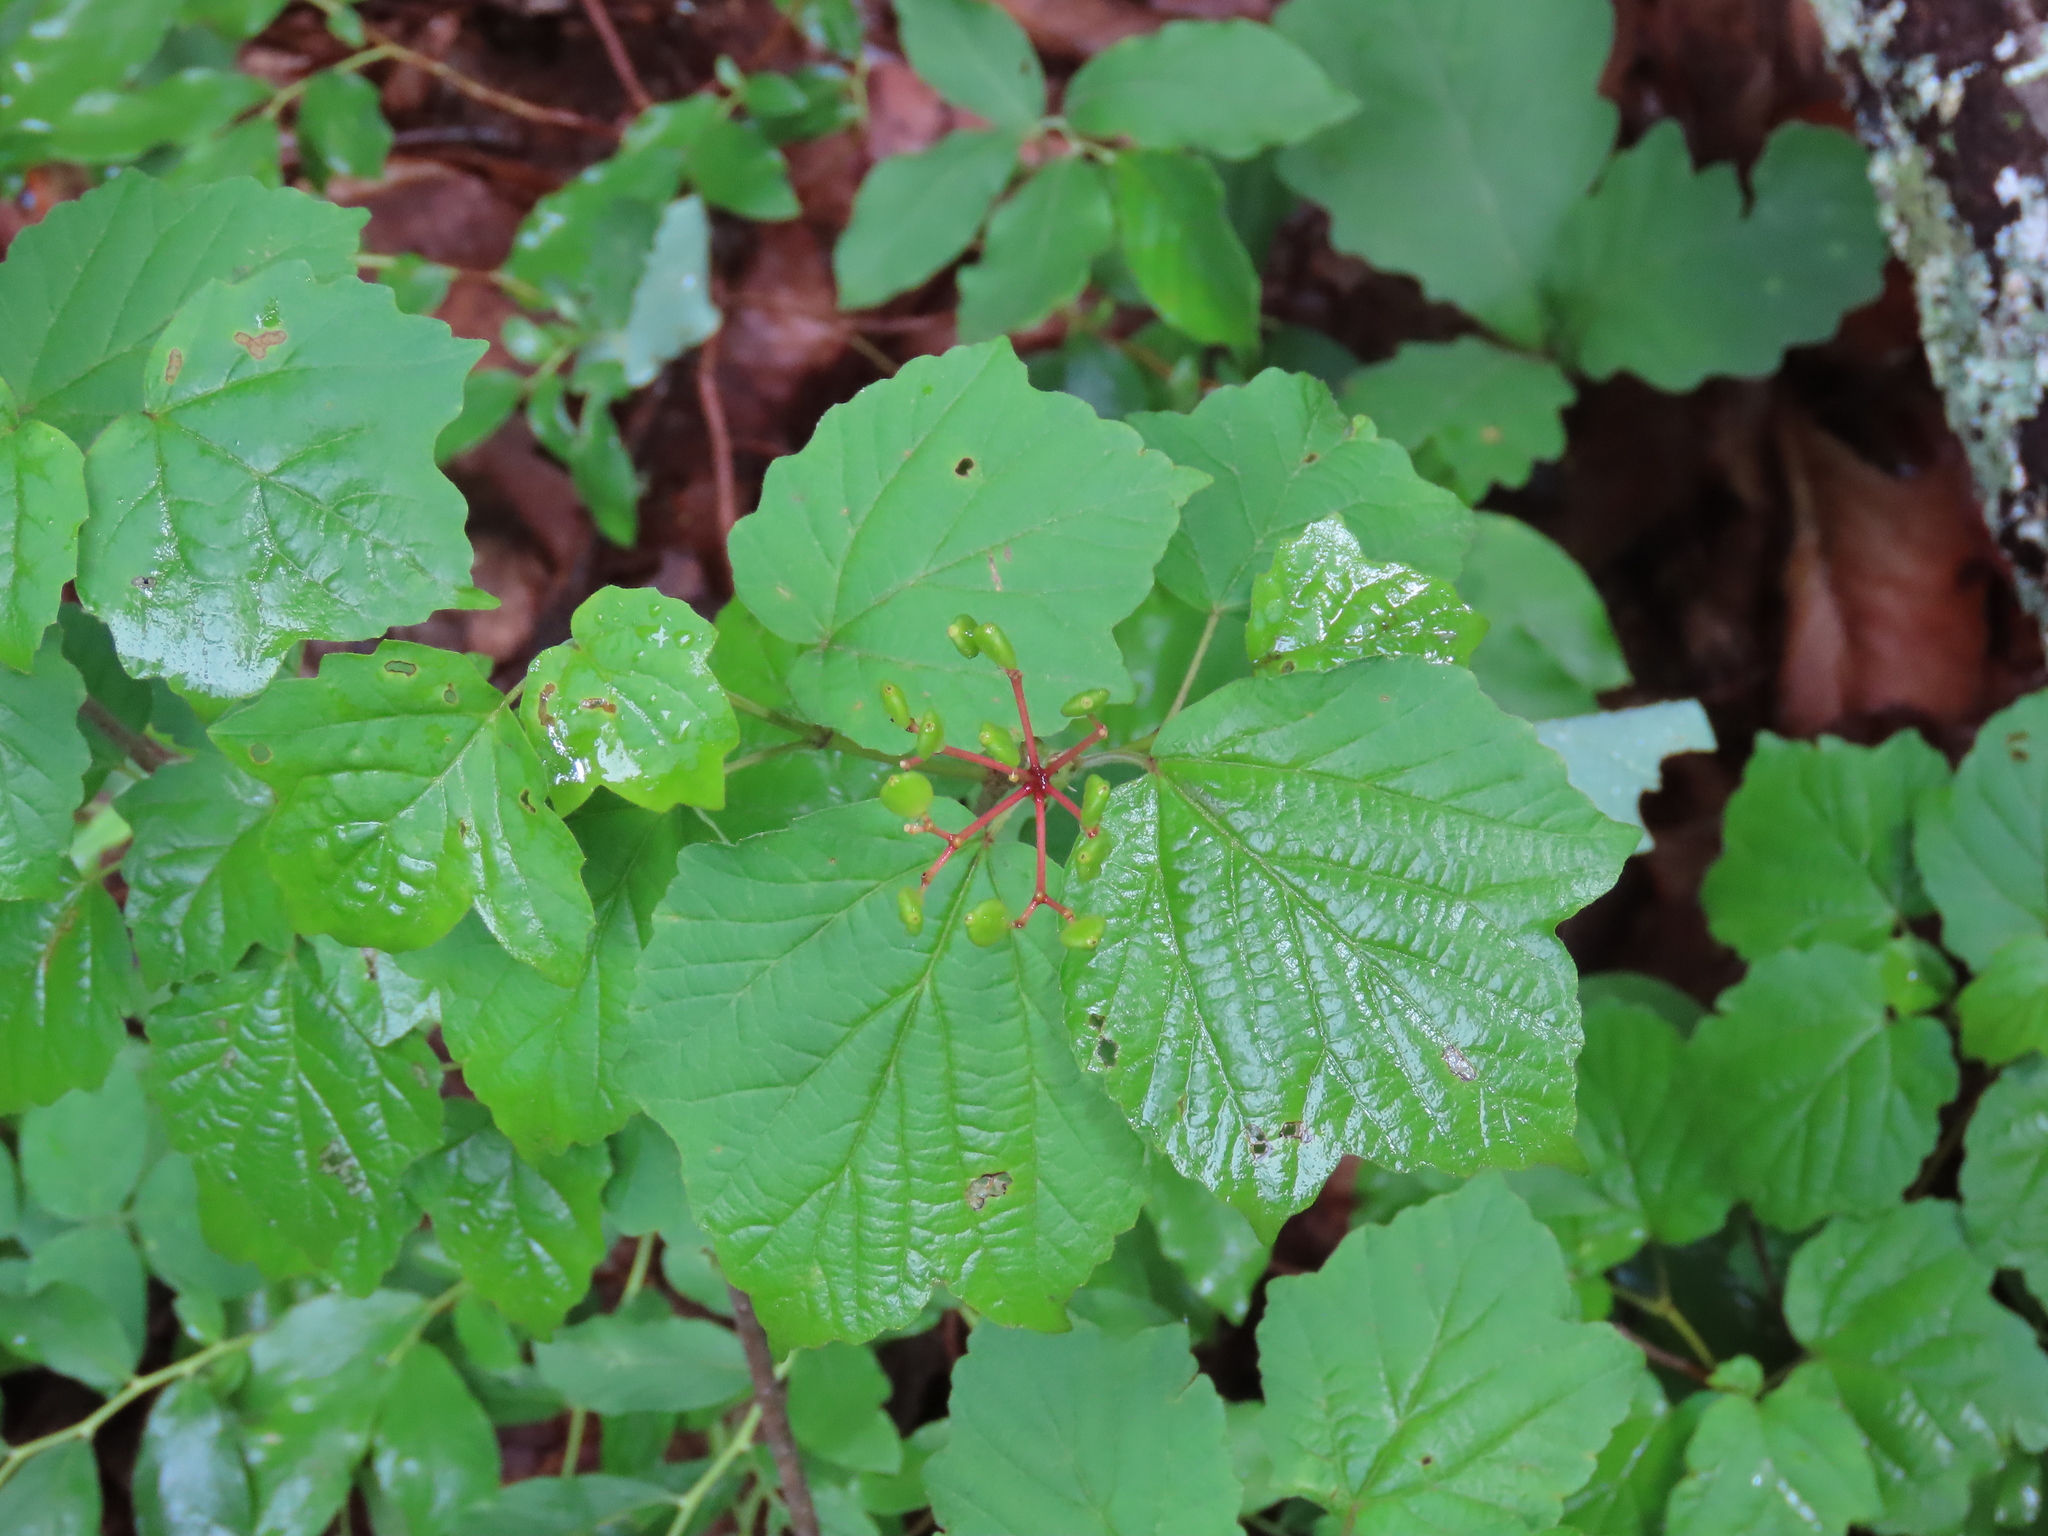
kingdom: Plantae
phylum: Tracheophyta
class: Magnoliopsida
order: Dipsacales
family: Viburnaceae
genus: Viburnum
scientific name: Viburnum acerifolium
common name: Dockmackie
